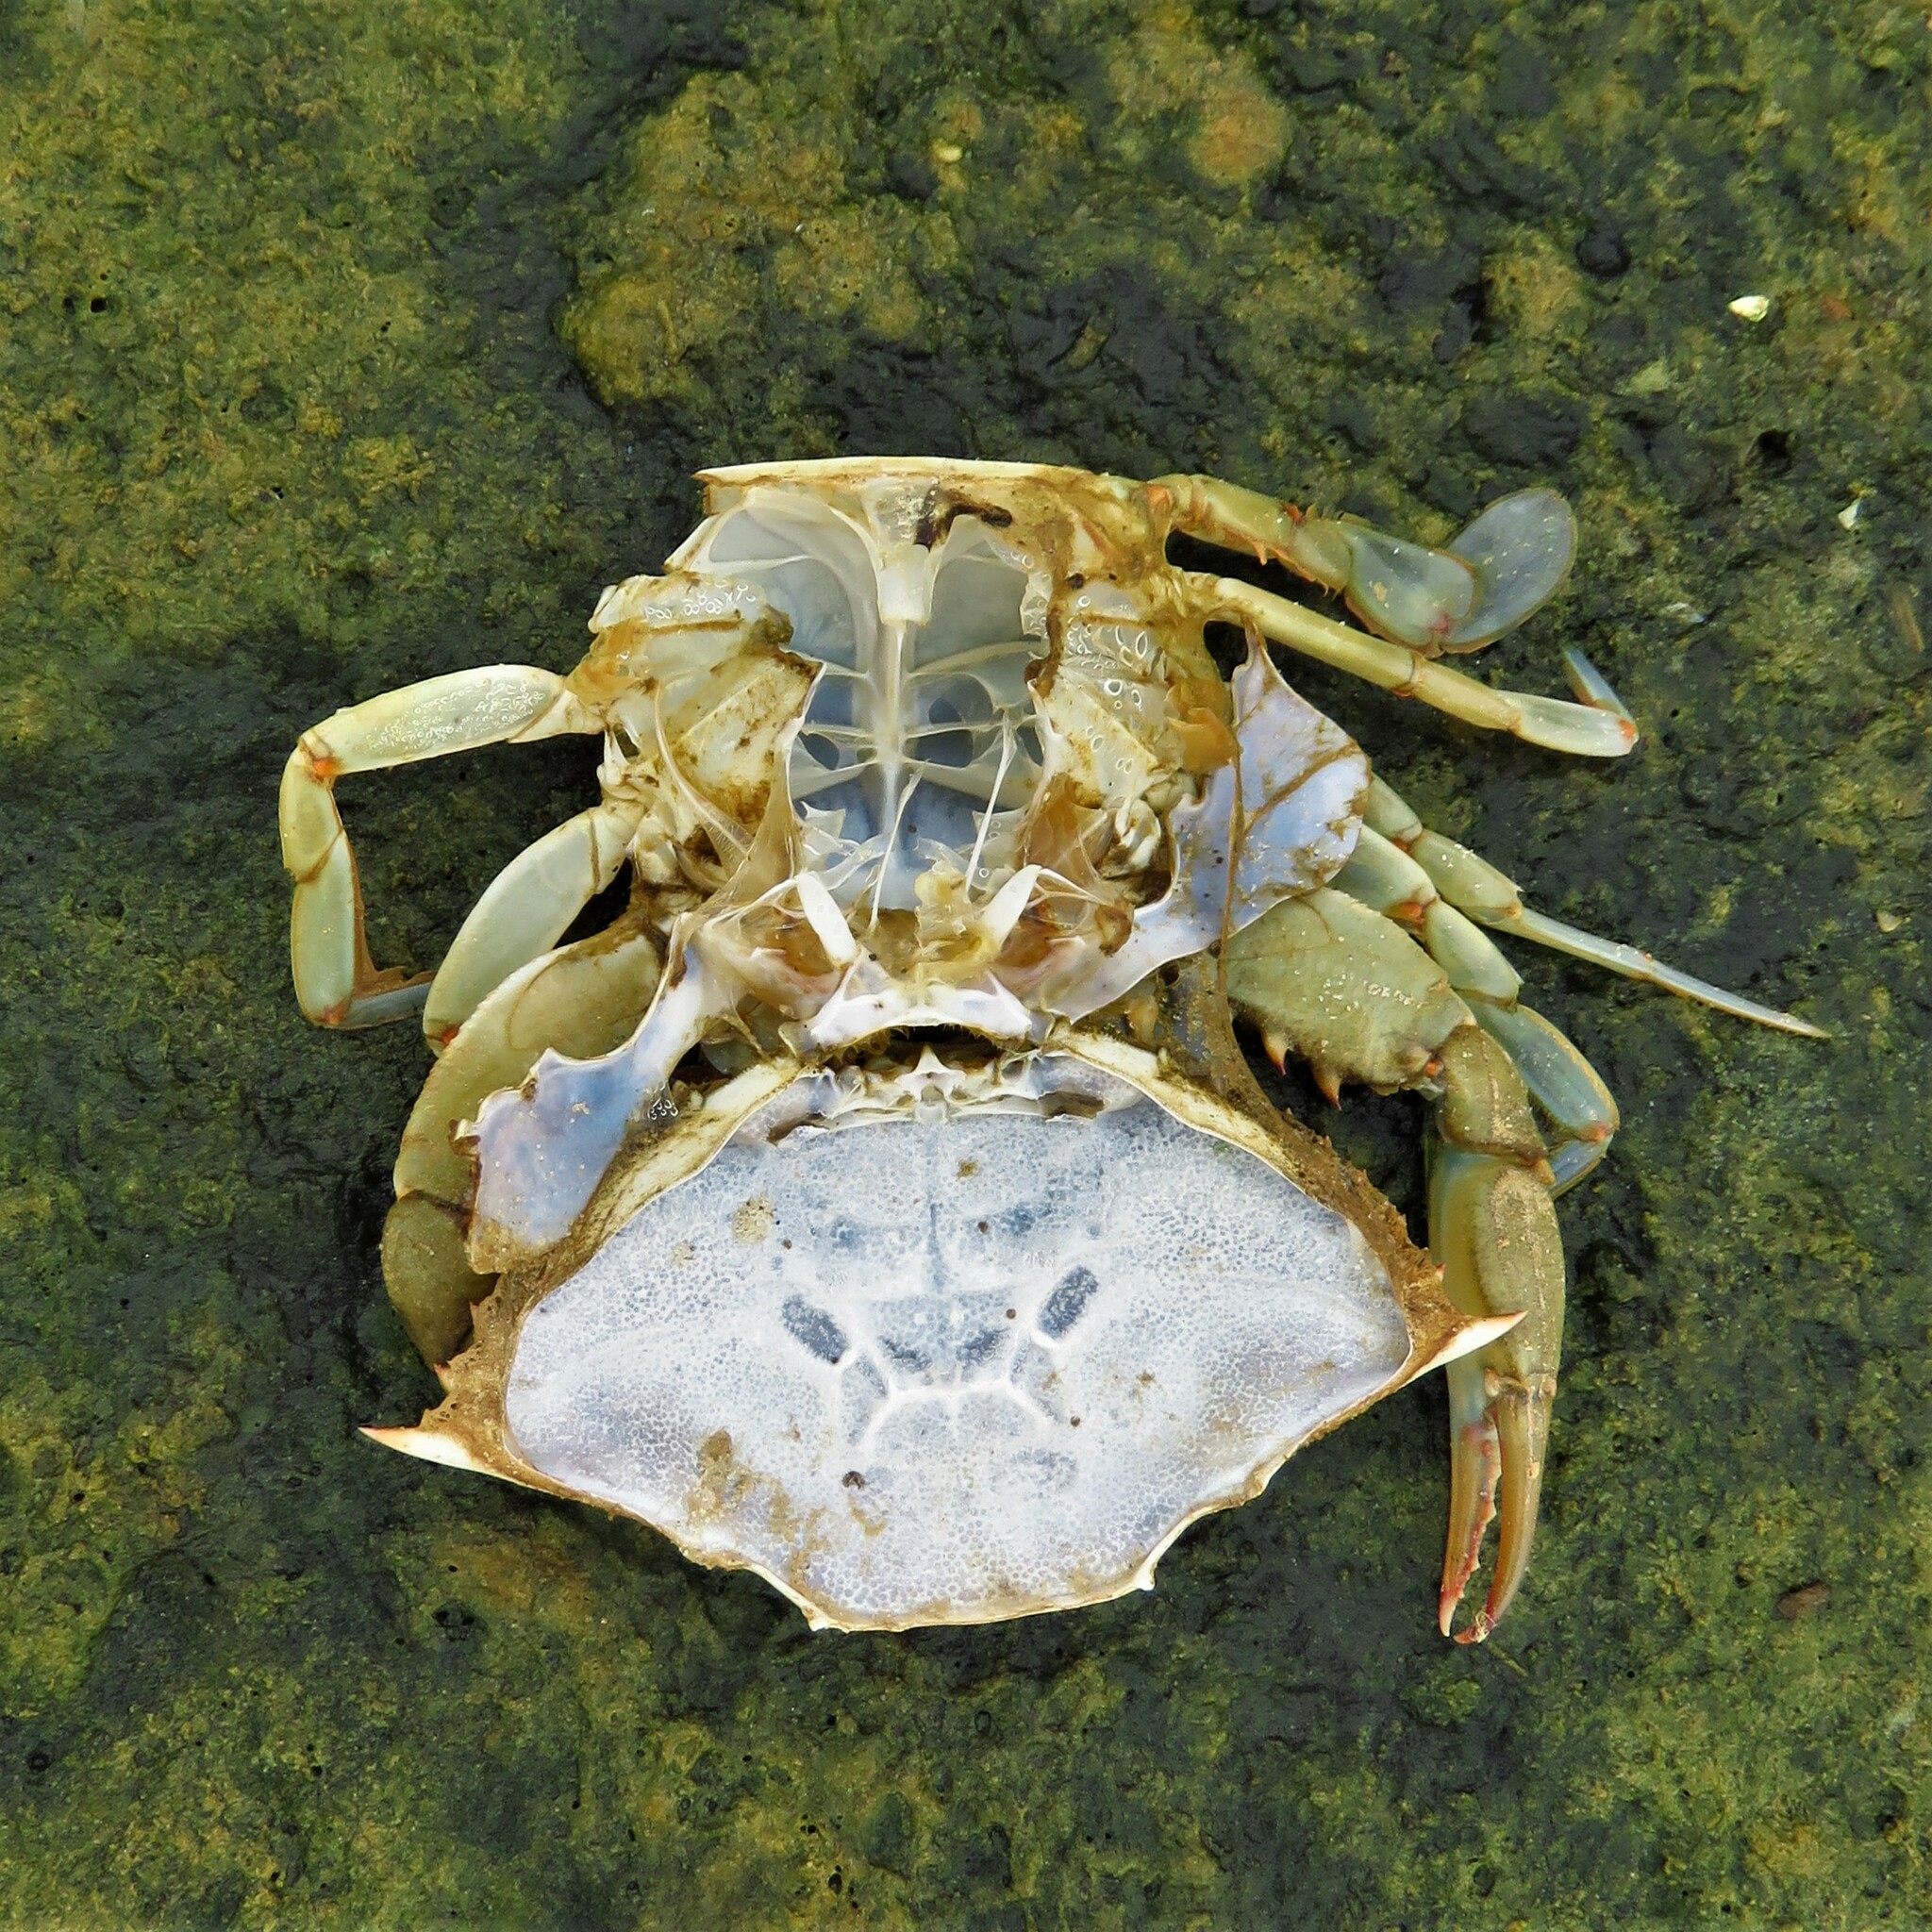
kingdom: Animalia
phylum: Arthropoda
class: Malacostraca
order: Decapoda
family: Portunidae
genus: Callinectes
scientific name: Callinectes sapidus
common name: Blue crab
